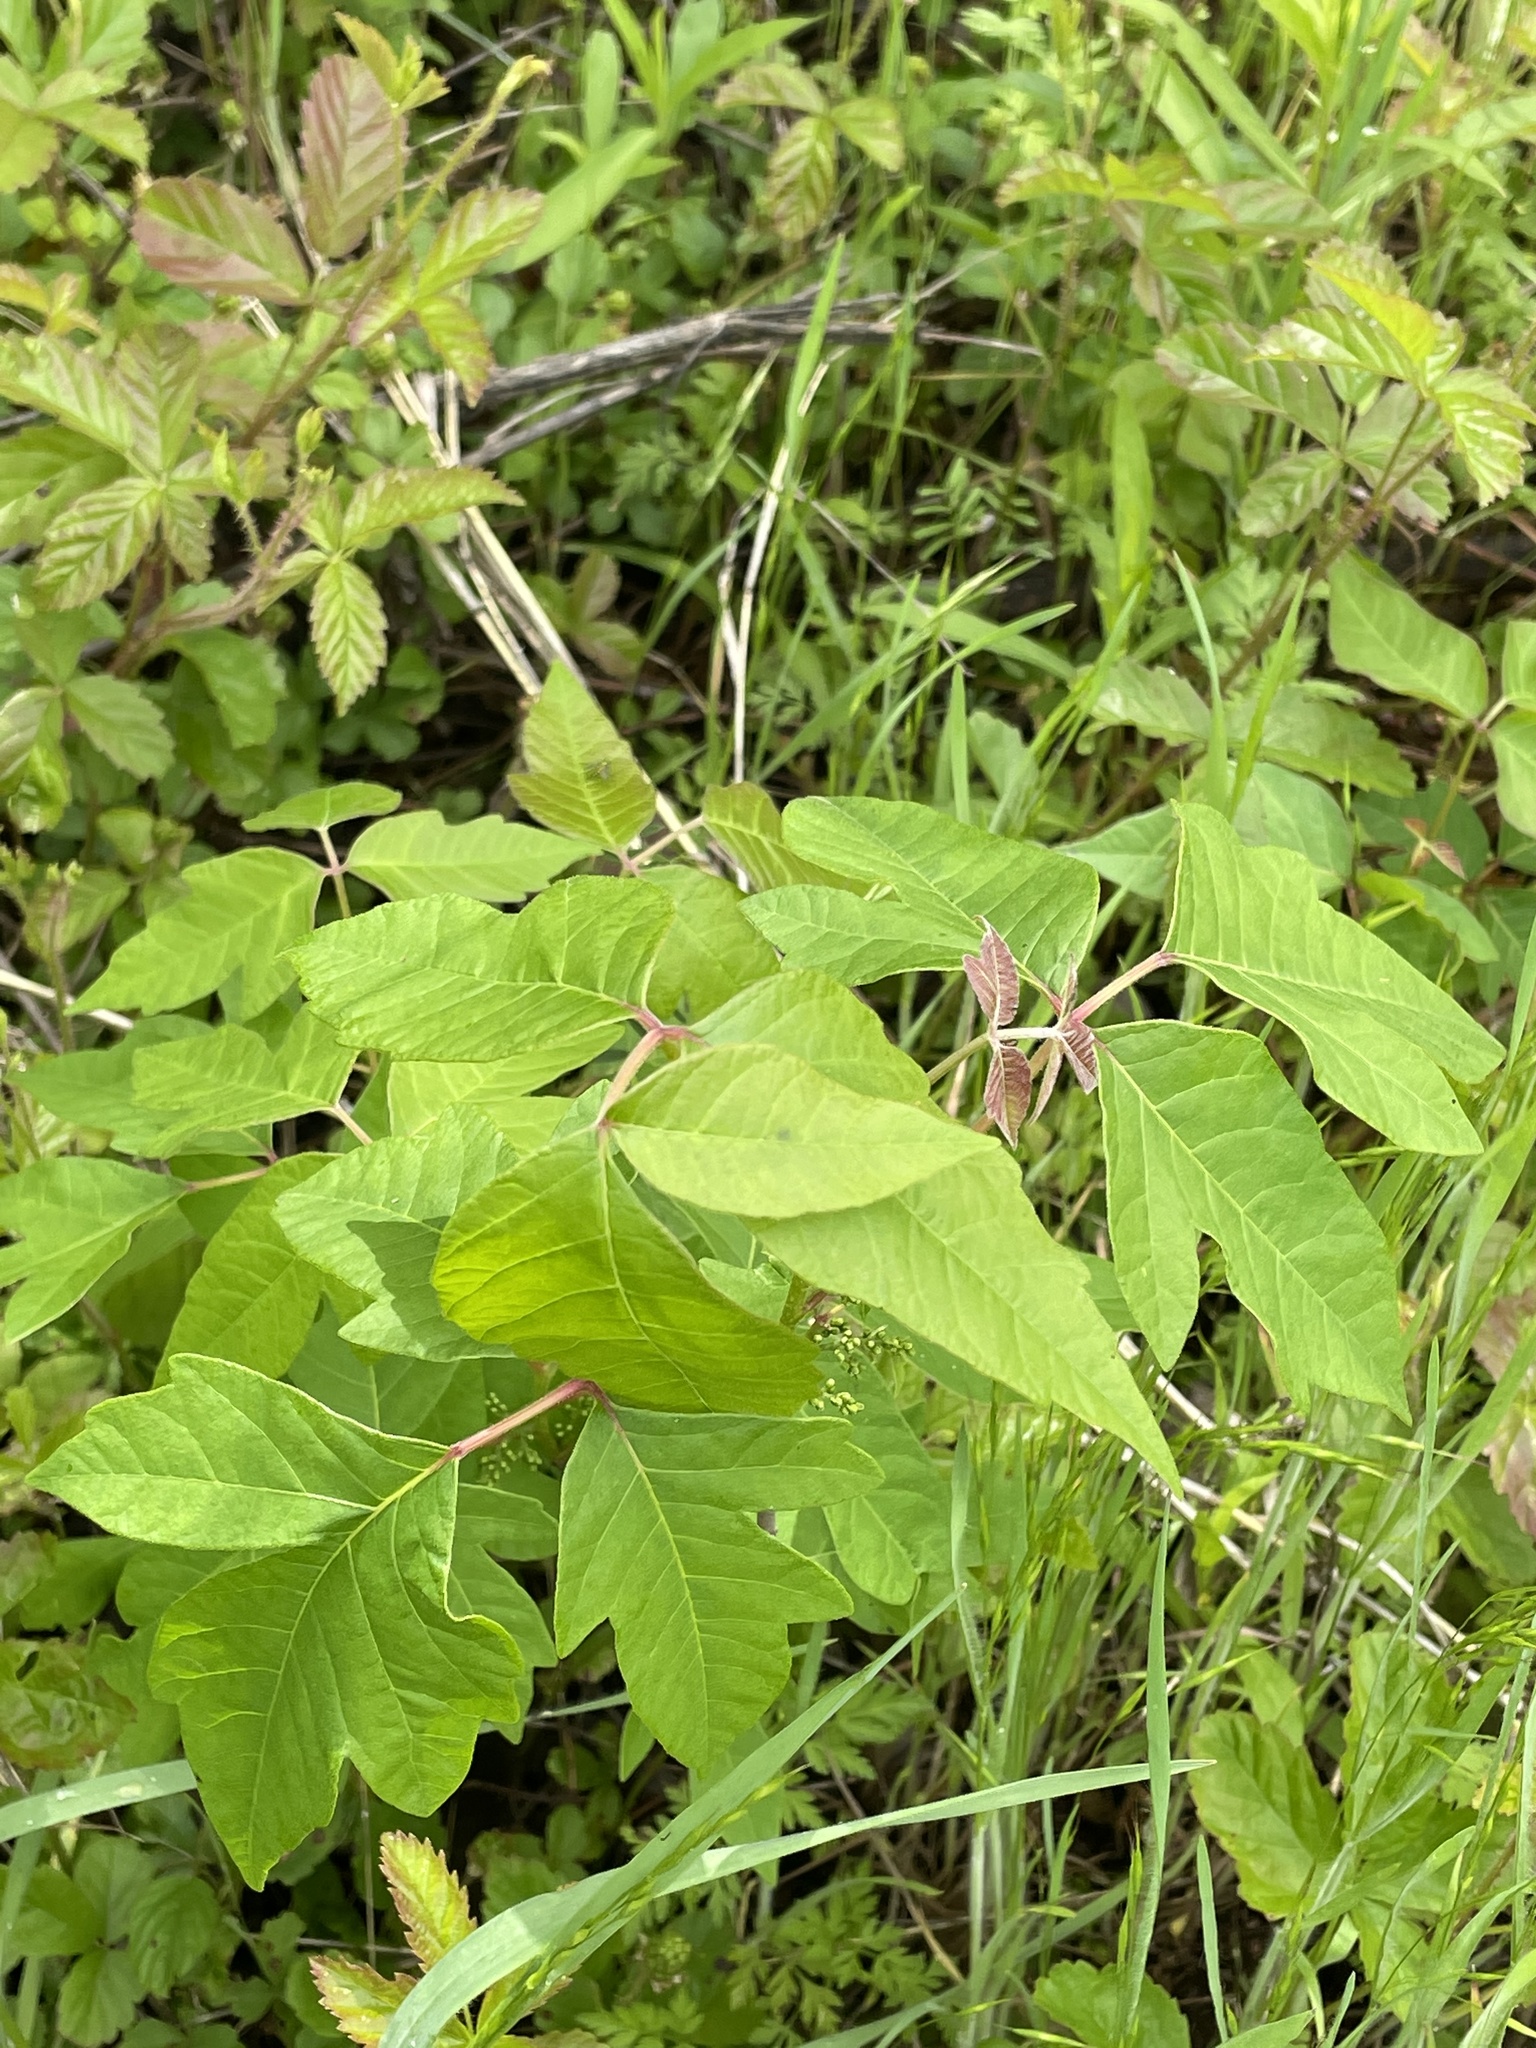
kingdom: Plantae
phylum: Tracheophyta
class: Magnoliopsida
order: Sapindales
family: Anacardiaceae
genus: Toxicodendron
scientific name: Toxicodendron radicans
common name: Poison ivy
